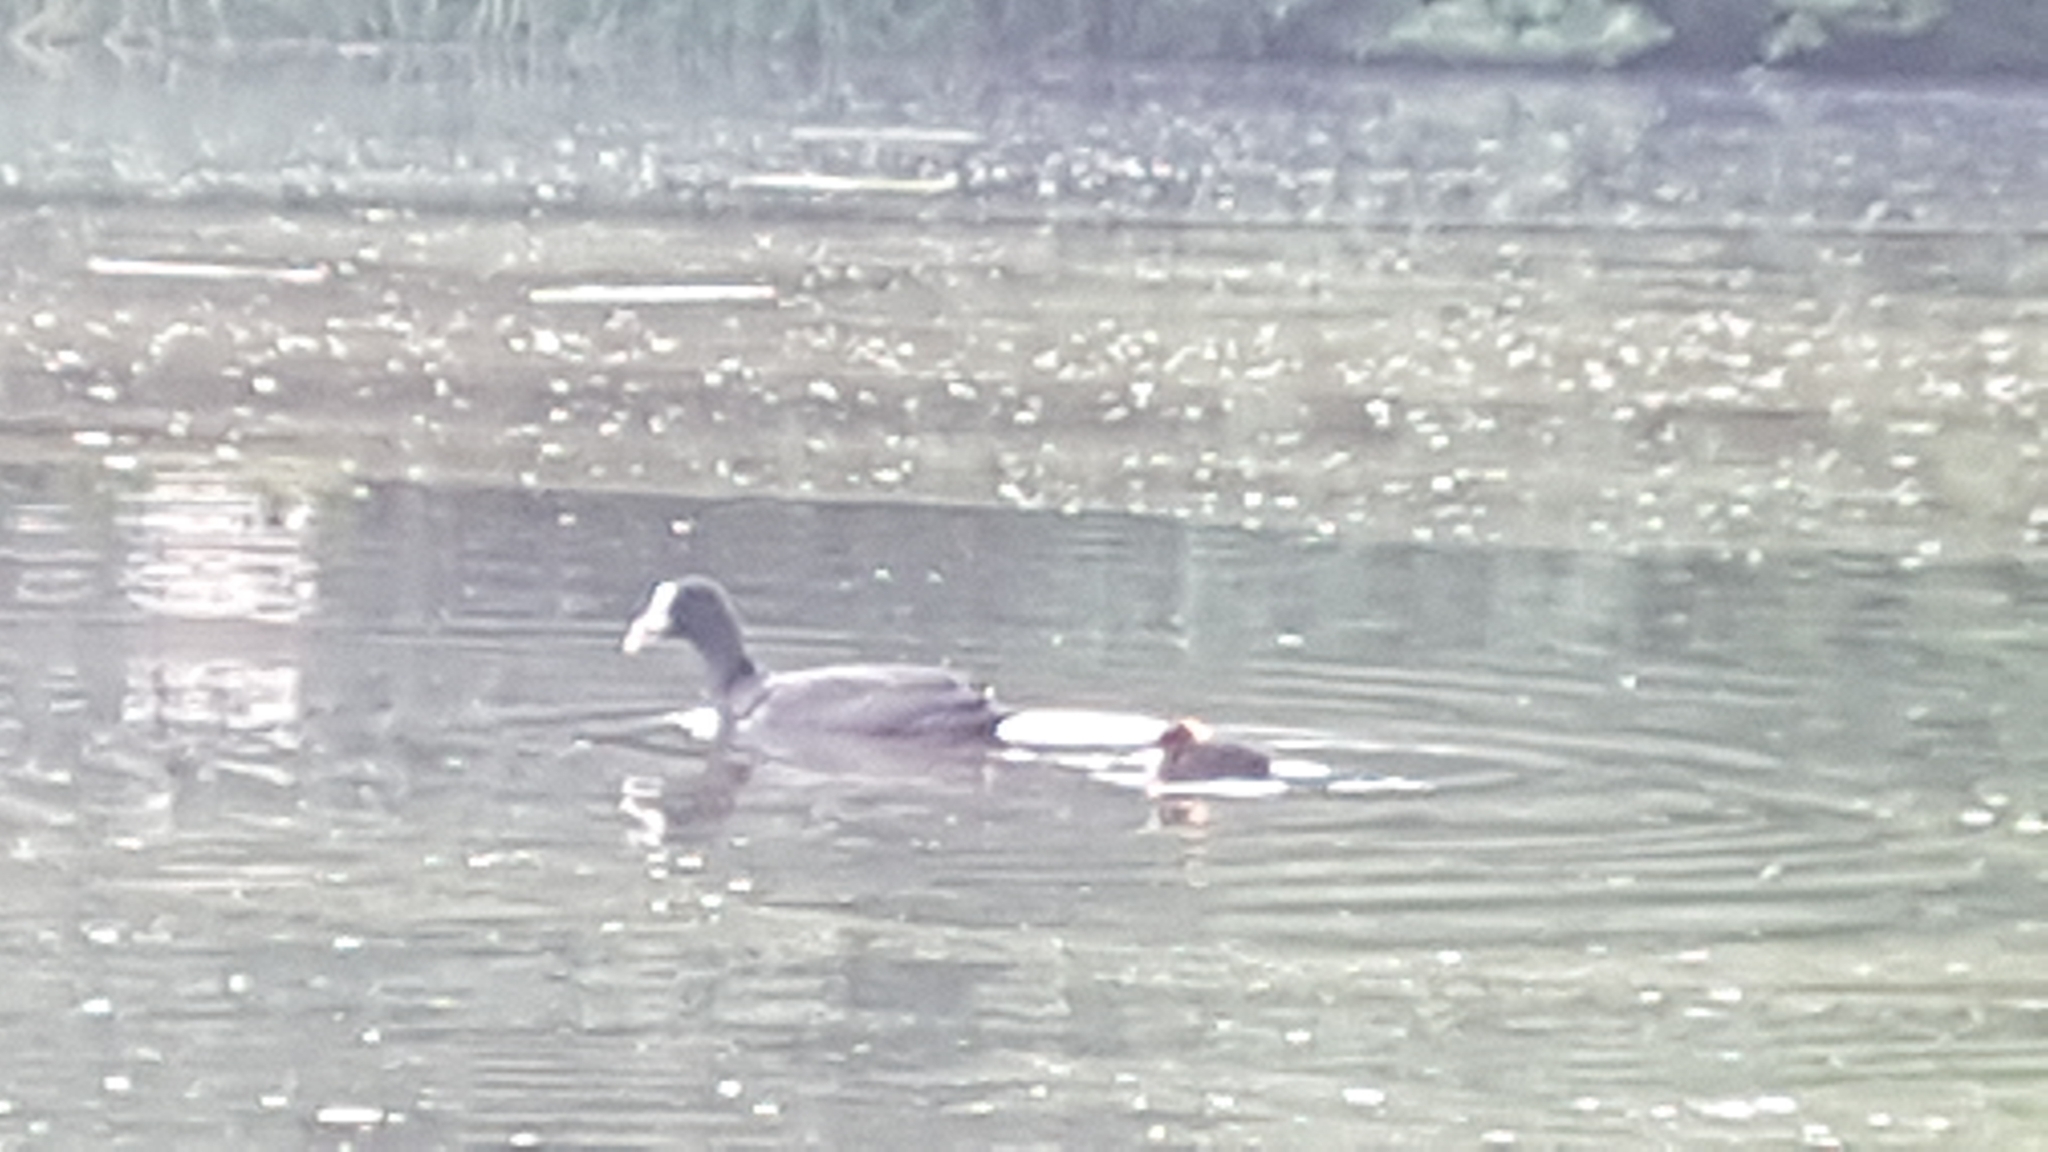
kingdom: Animalia
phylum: Chordata
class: Aves
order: Gruiformes
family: Rallidae
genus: Fulica
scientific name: Fulica atra
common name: Eurasian coot
